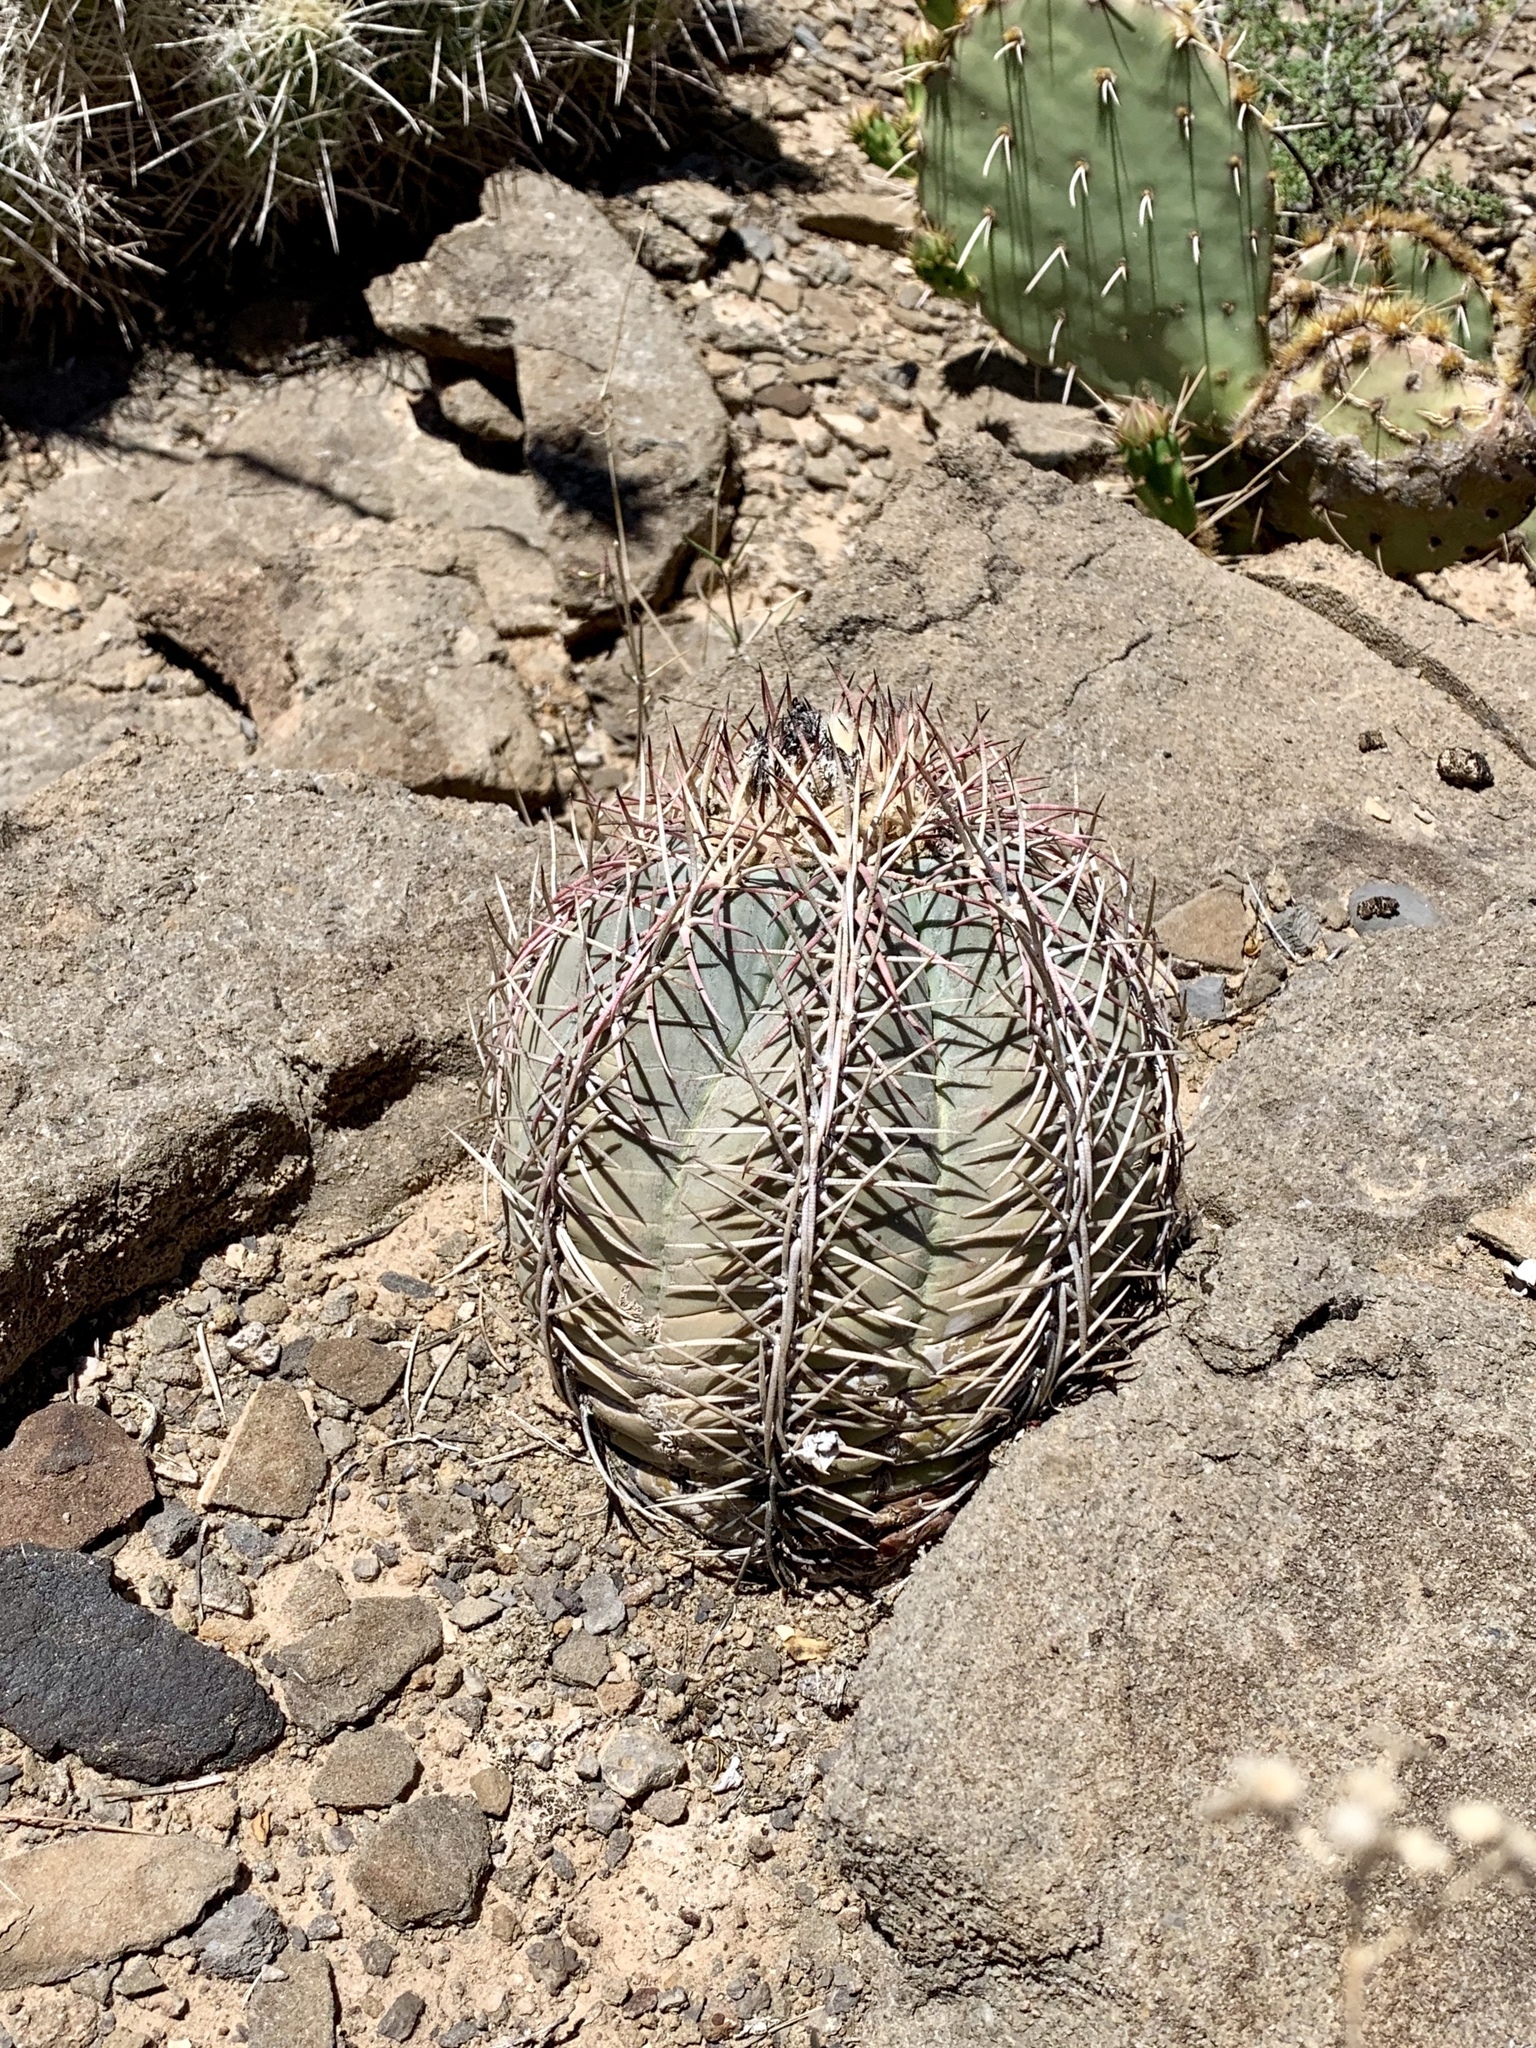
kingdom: Plantae
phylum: Tracheophyta
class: Magnoliopsida
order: Caryophyllales
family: Cactaceae
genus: Echinocactus
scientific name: Echinocactus horizonthalonius
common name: Devilshead
